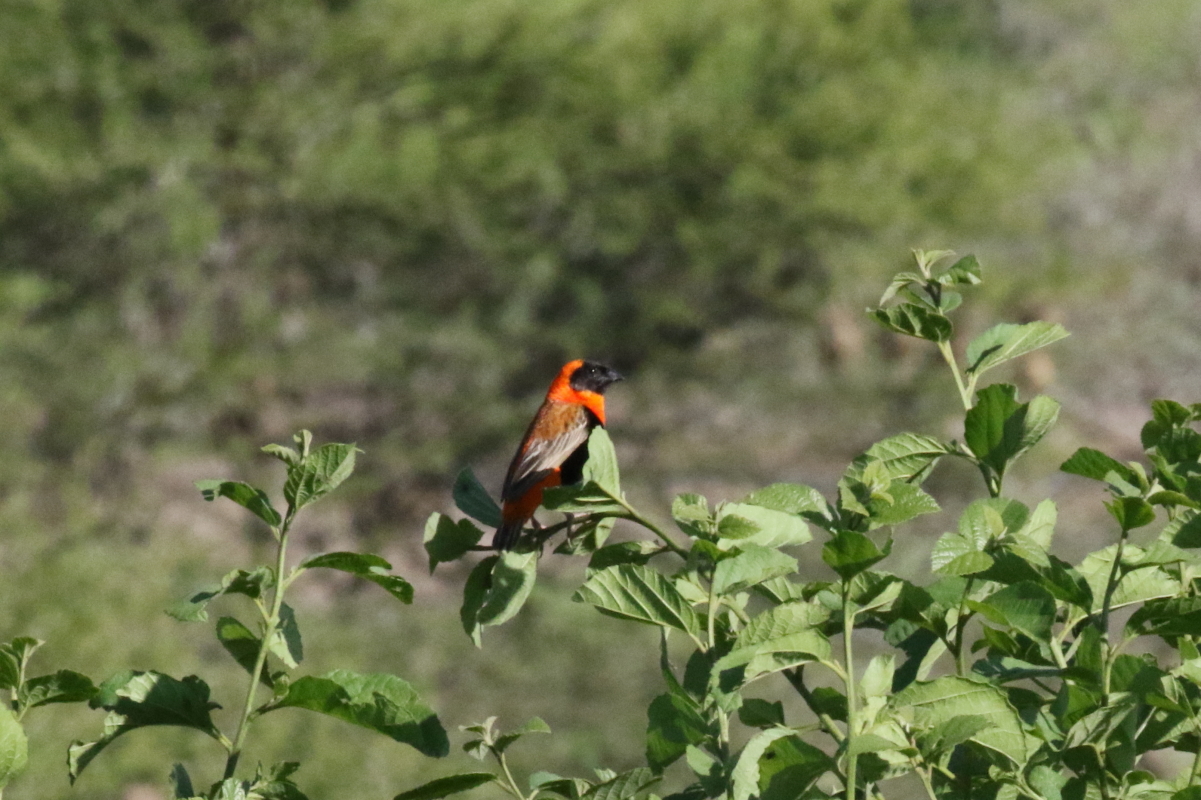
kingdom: Animalia
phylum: Chordata
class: Aves
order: Passeriformes
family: Ploceidae
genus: Euplectes
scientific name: Euplectes orix
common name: Southern red bishop
